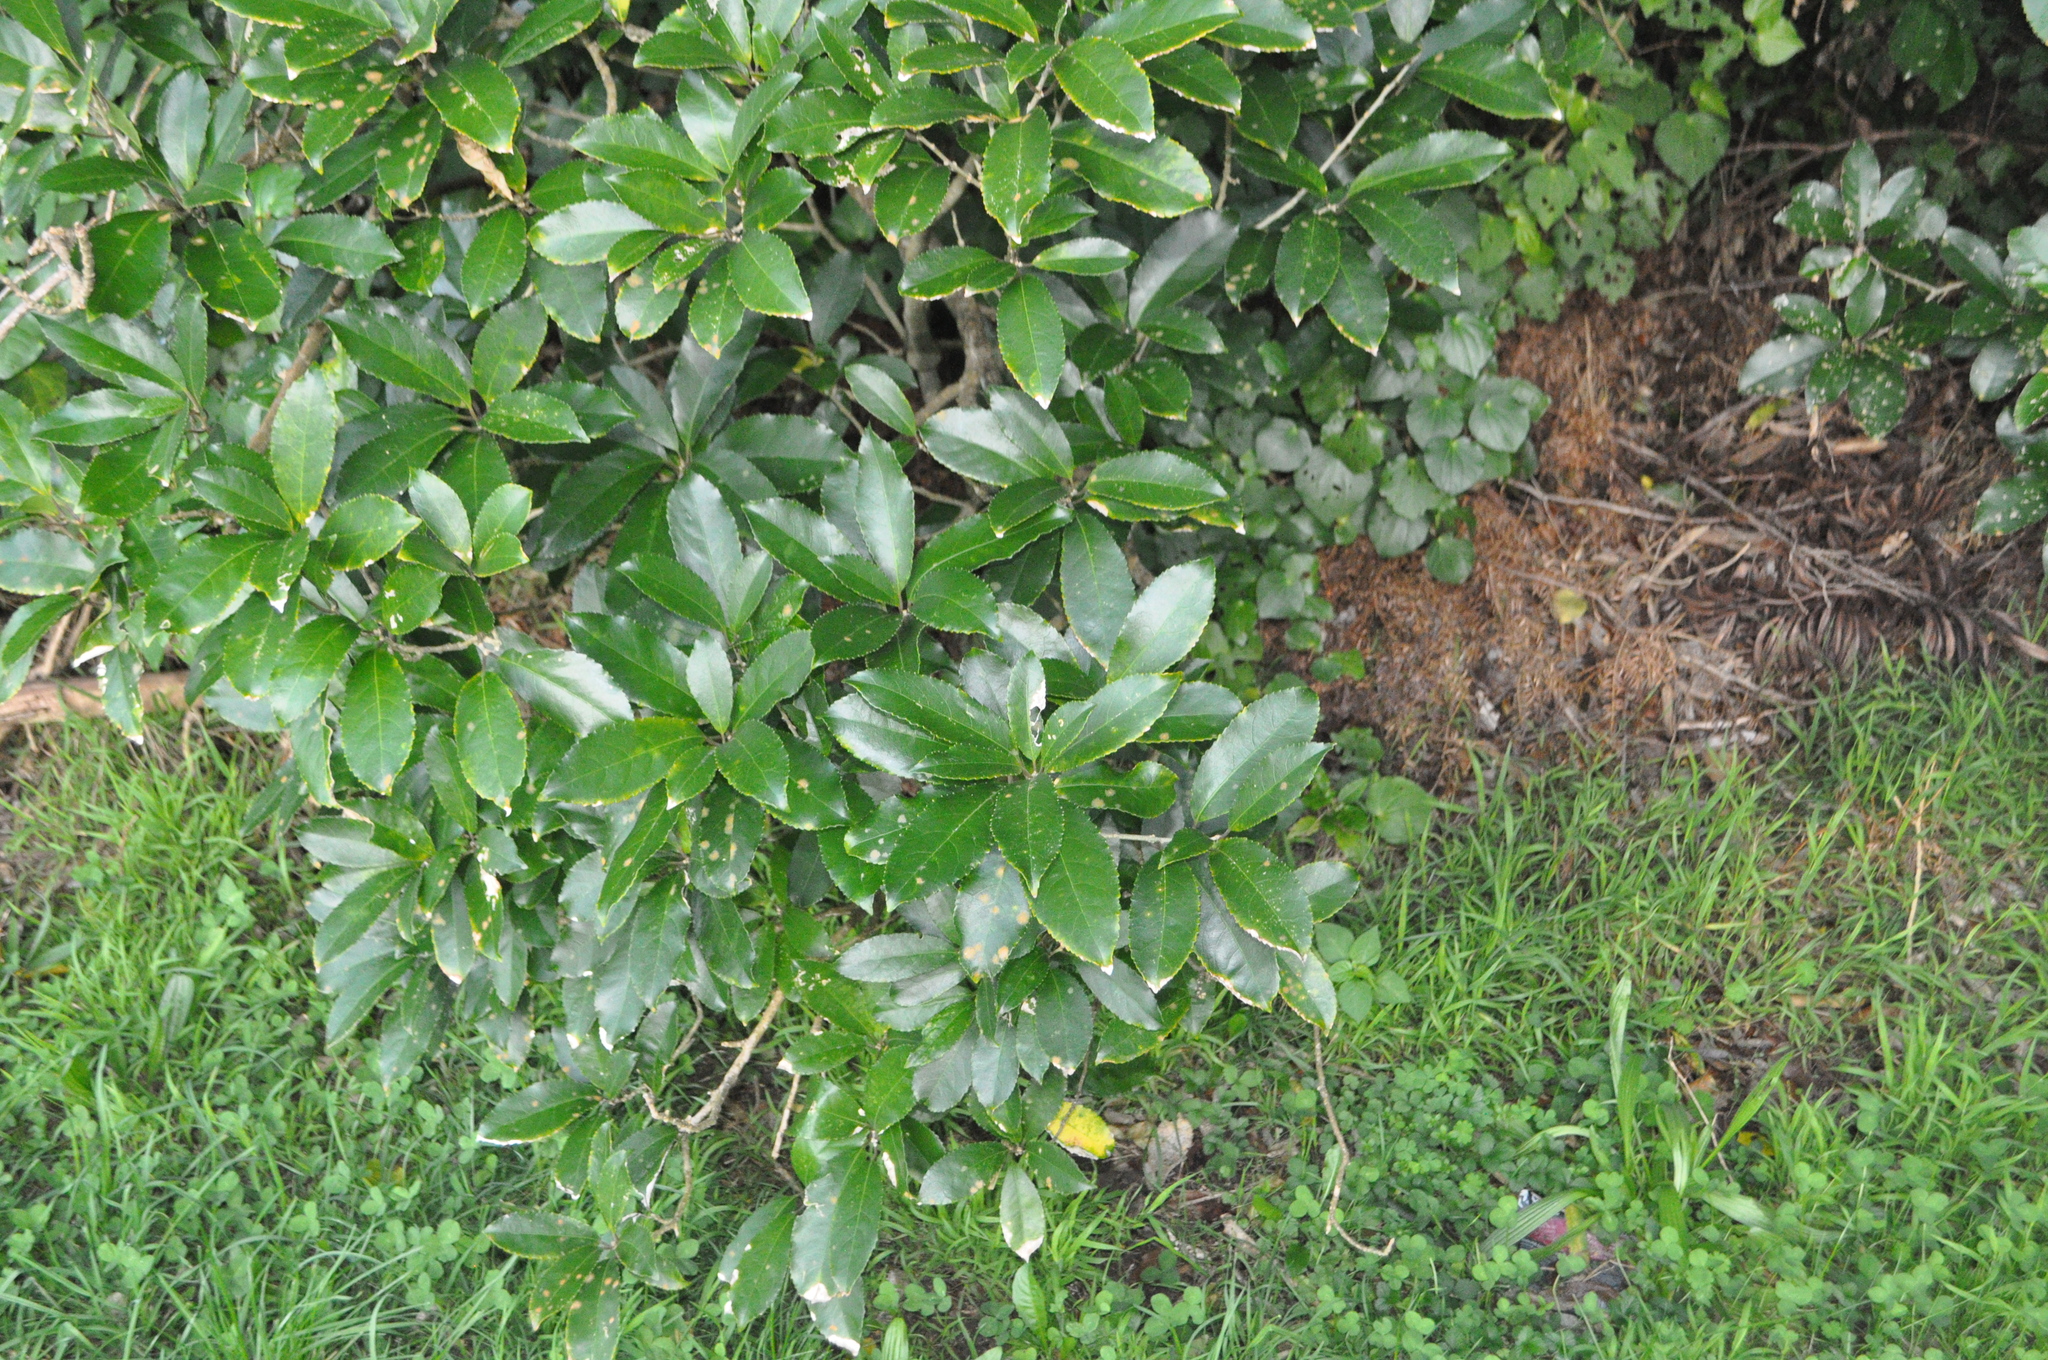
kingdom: Plantae
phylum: Tracheophyta
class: Magnoliopsida
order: Malpighiales
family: Violaceae
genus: Melicytus
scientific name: Melicytus ramiflorus
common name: Mahoe
